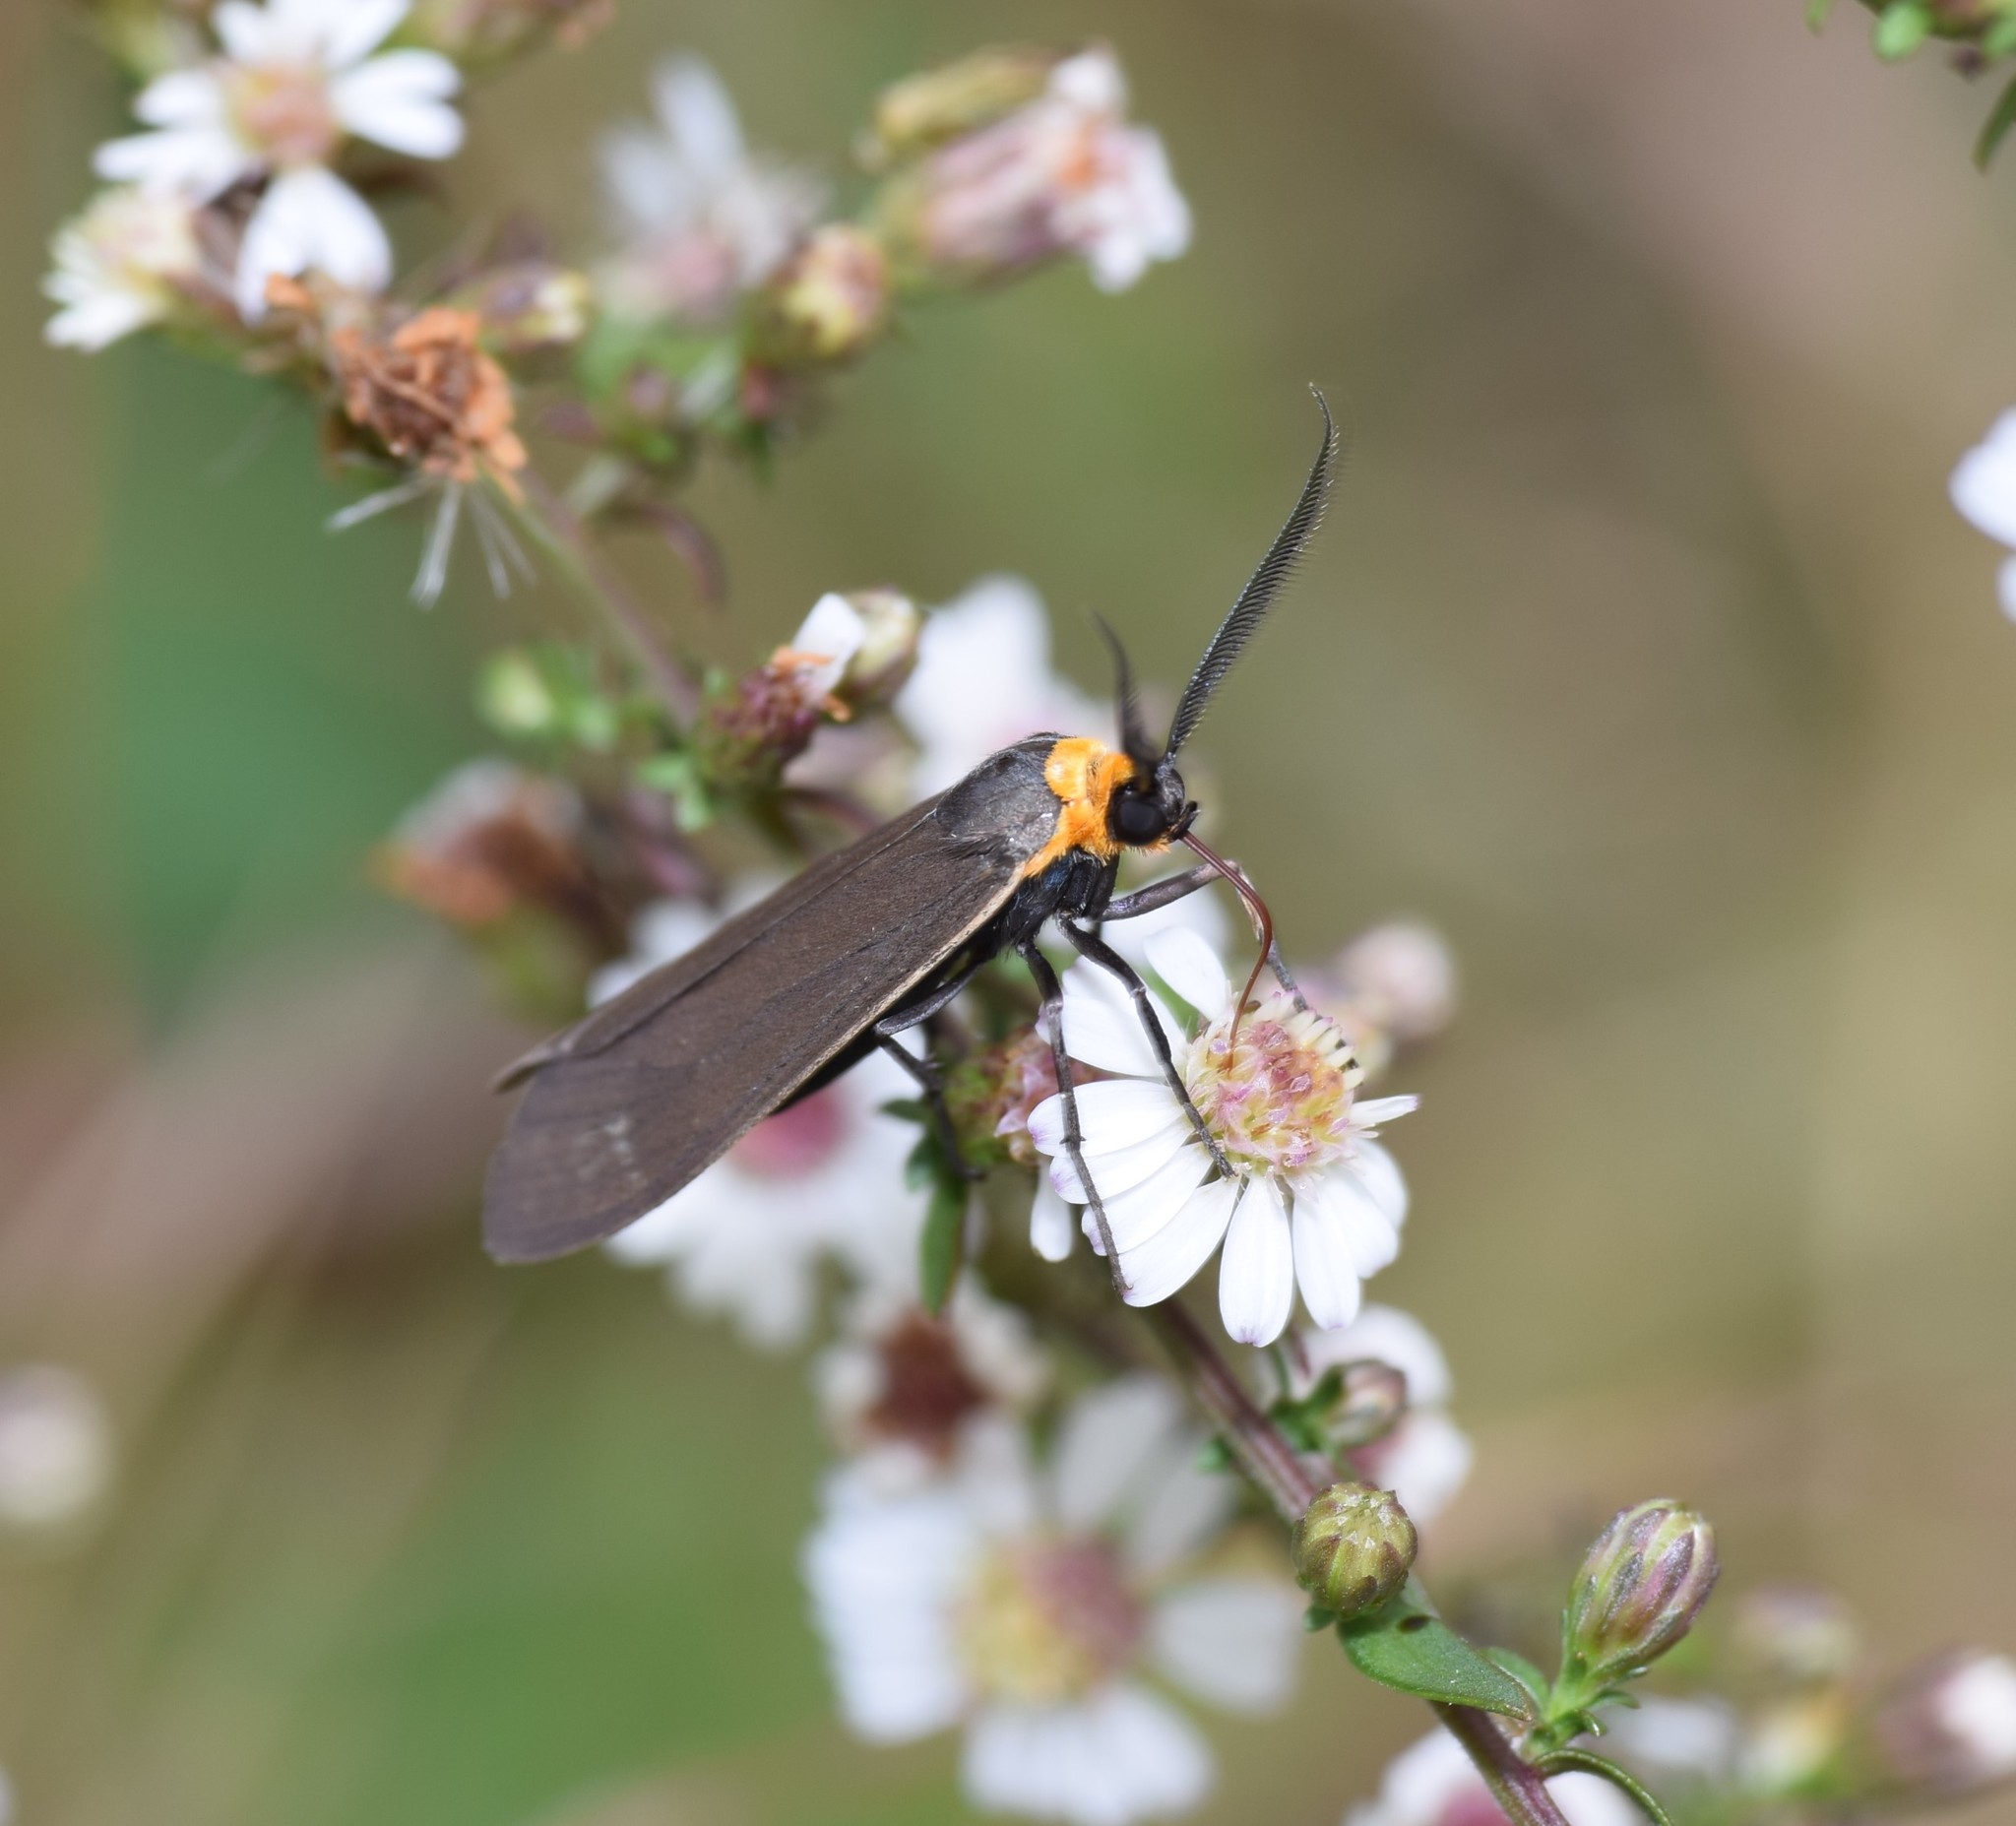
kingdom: Animalia
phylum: Arthropoda
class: Insecta
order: Lepidoptera
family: Erebidae
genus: Cisseps
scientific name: Cisseps fulvicollis
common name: Yellow-collared scape moth
